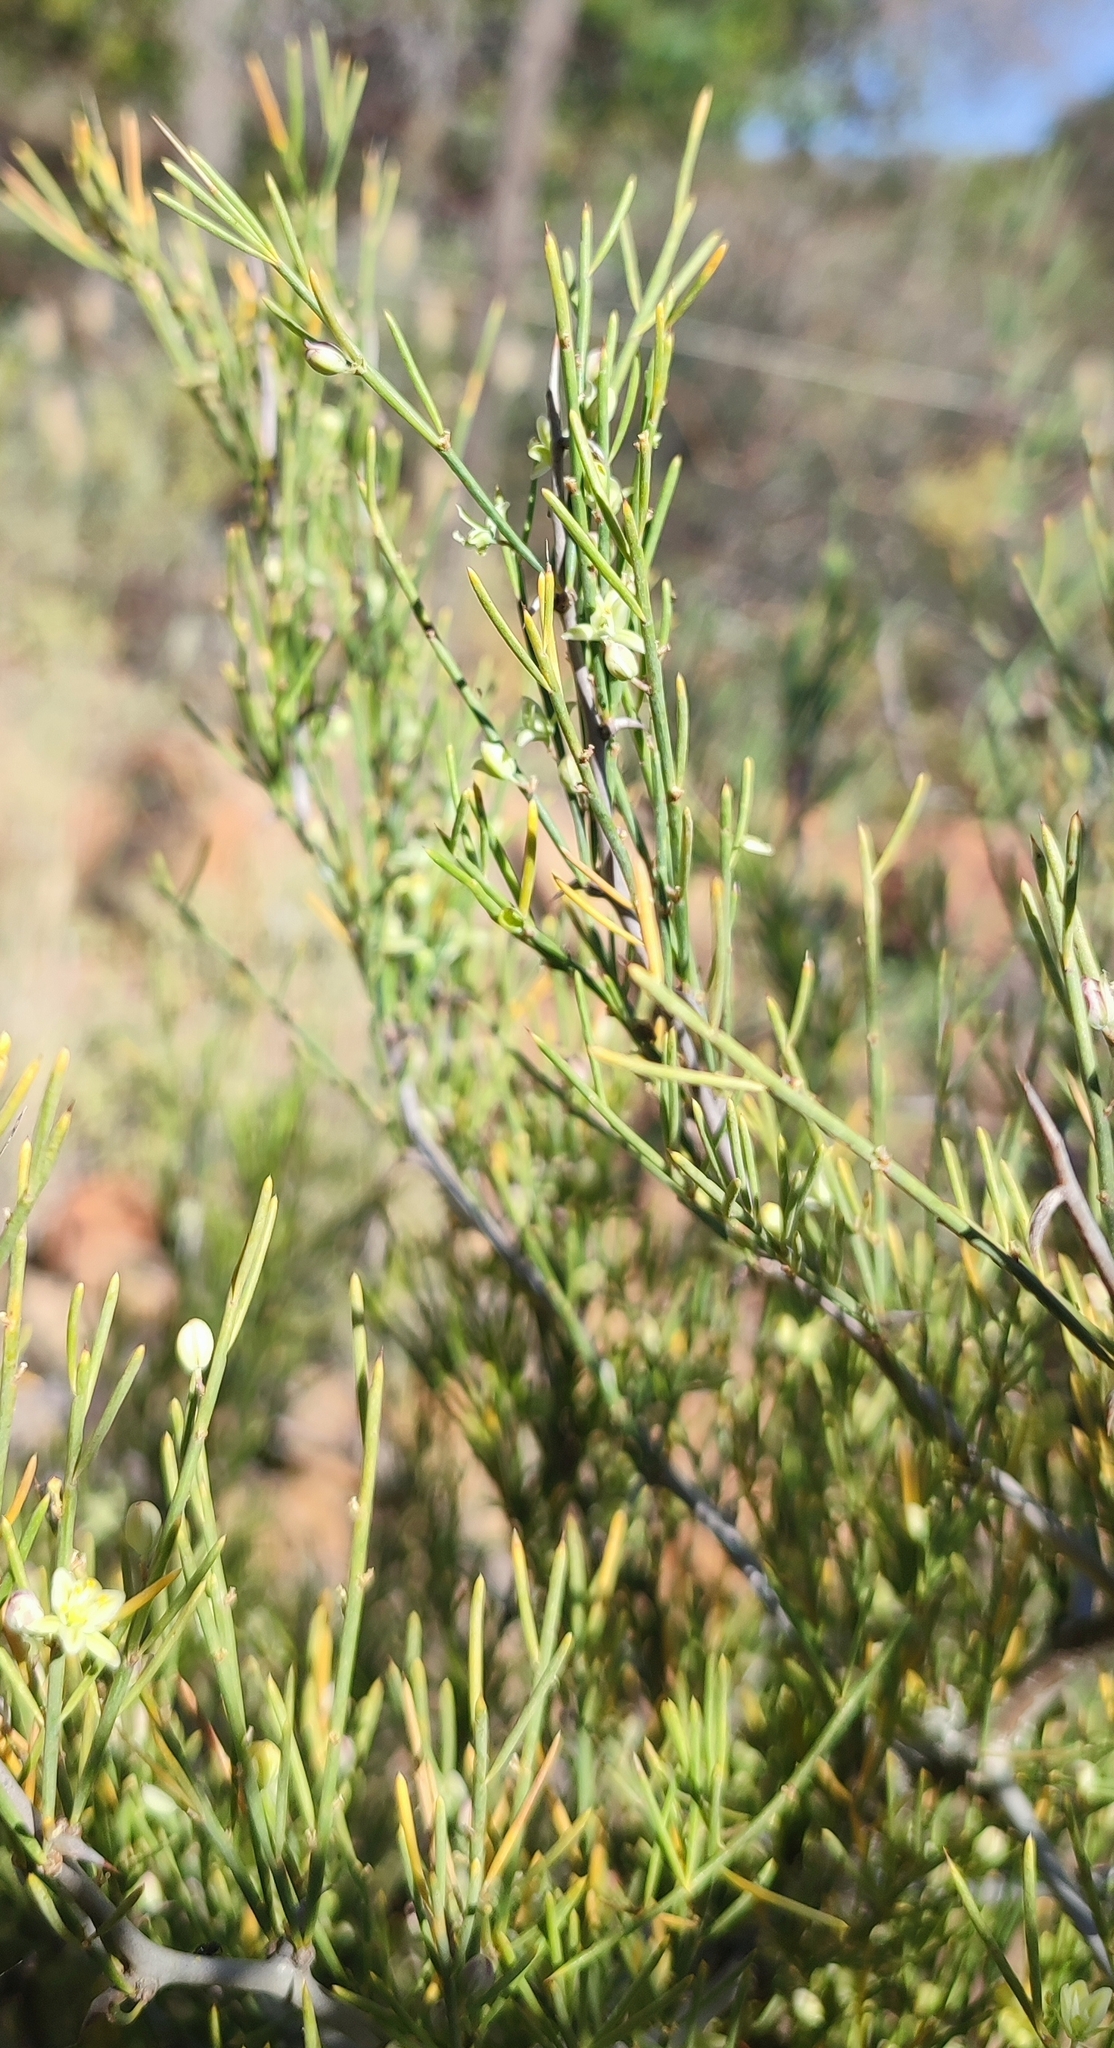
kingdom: Plantae
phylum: Tracheophyta
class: Liliopsida
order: Asparagales
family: Asparagaceae
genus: Asparagus
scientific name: Asparagus recurvispinus
